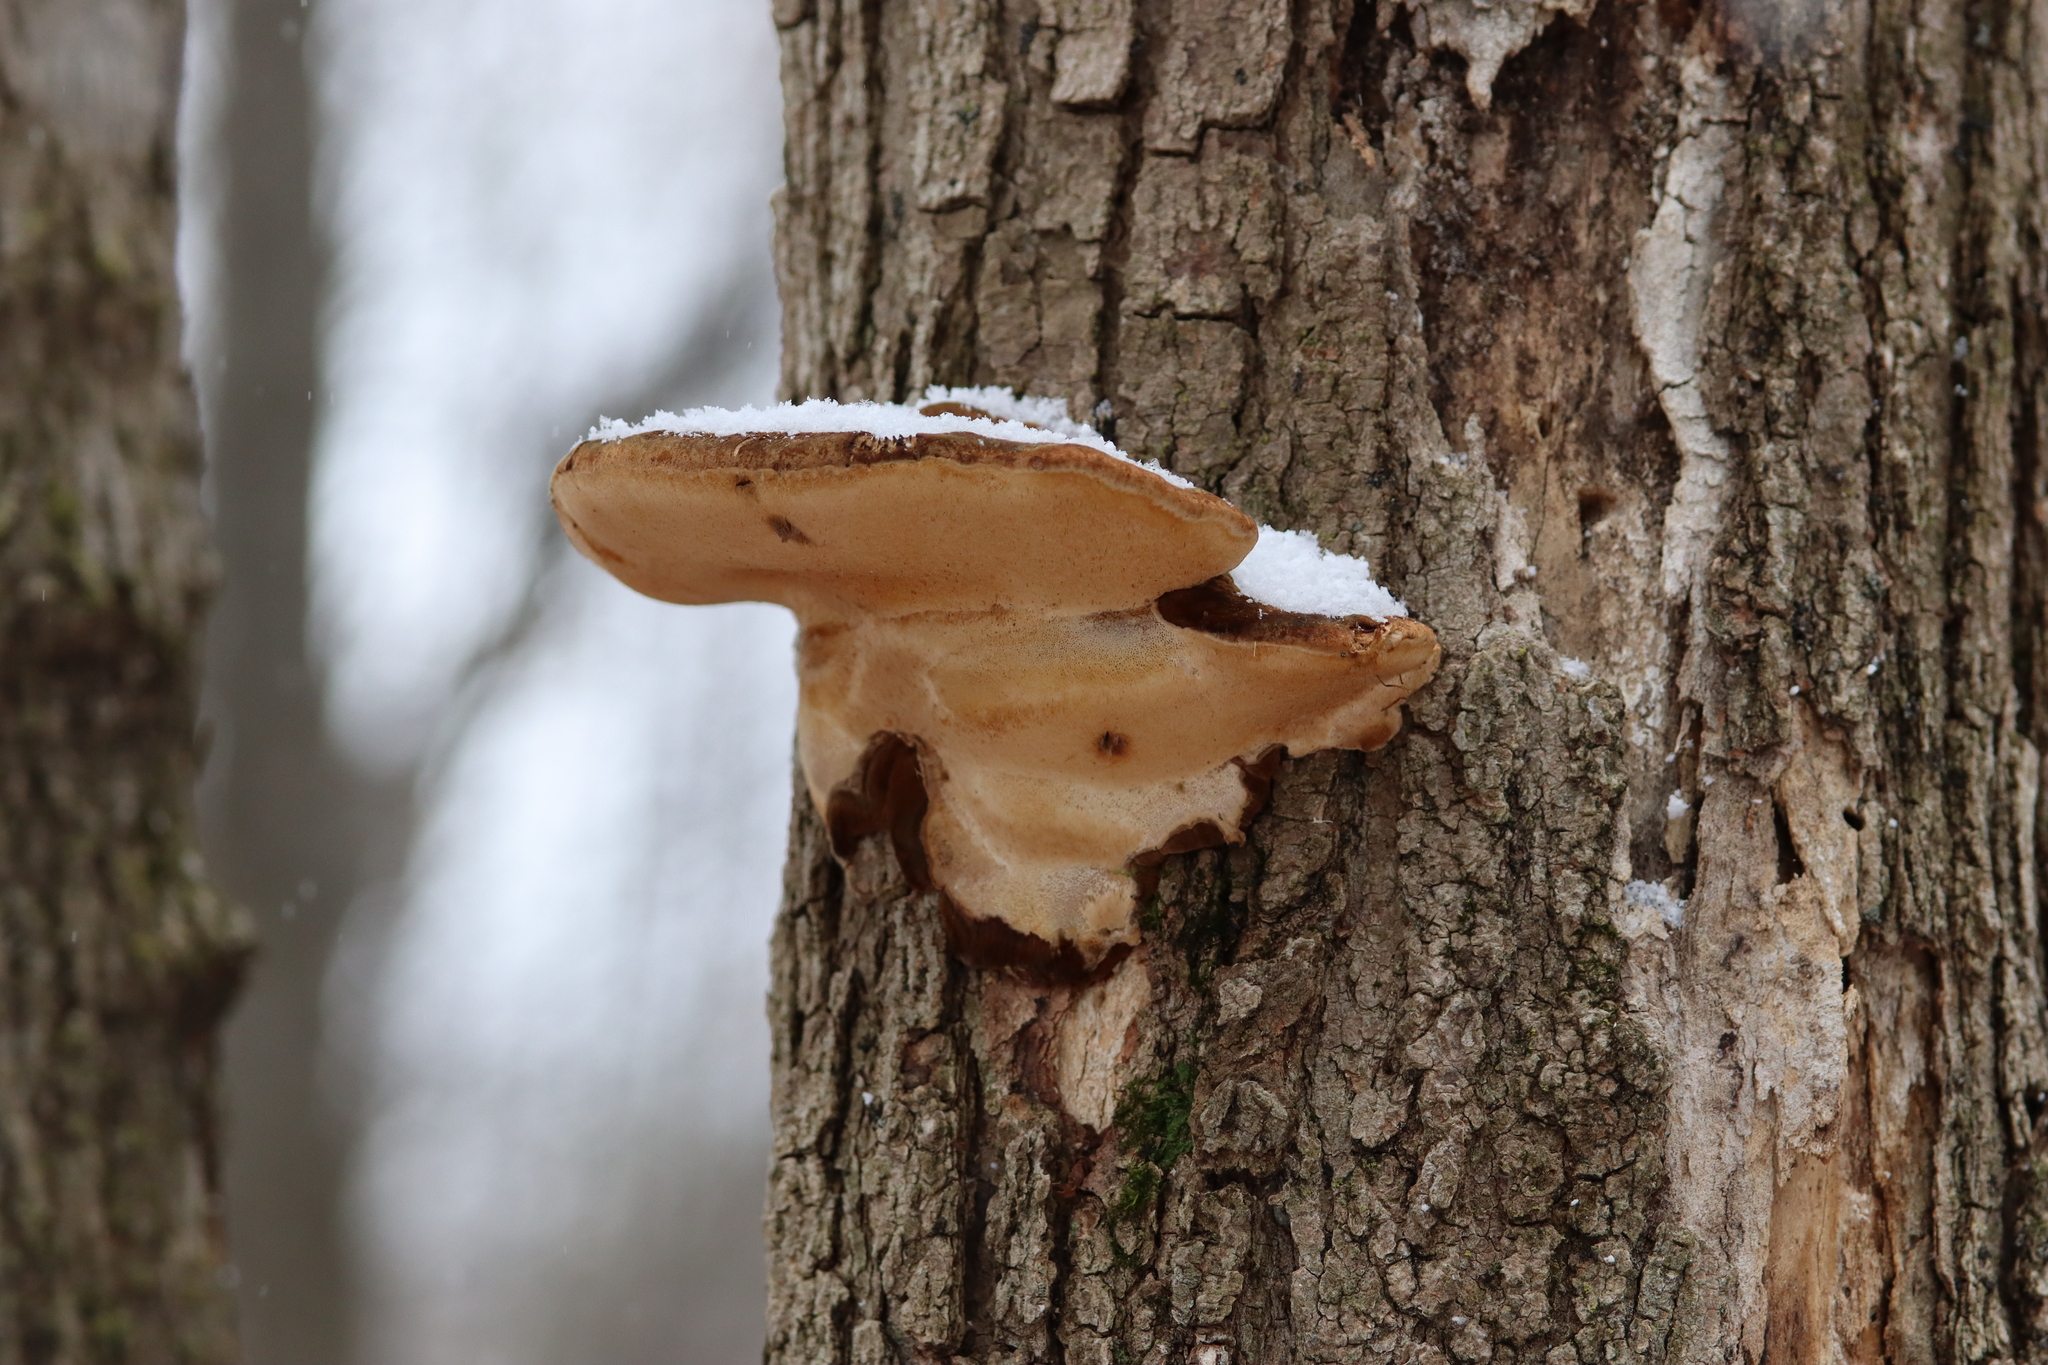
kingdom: Fungi
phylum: Basidiomycota
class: Agaricomycetes
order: Polyporales
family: Ischnodermataceae
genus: Ischnoderma
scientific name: Ischnoderma resinosum
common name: Resinous polypore
